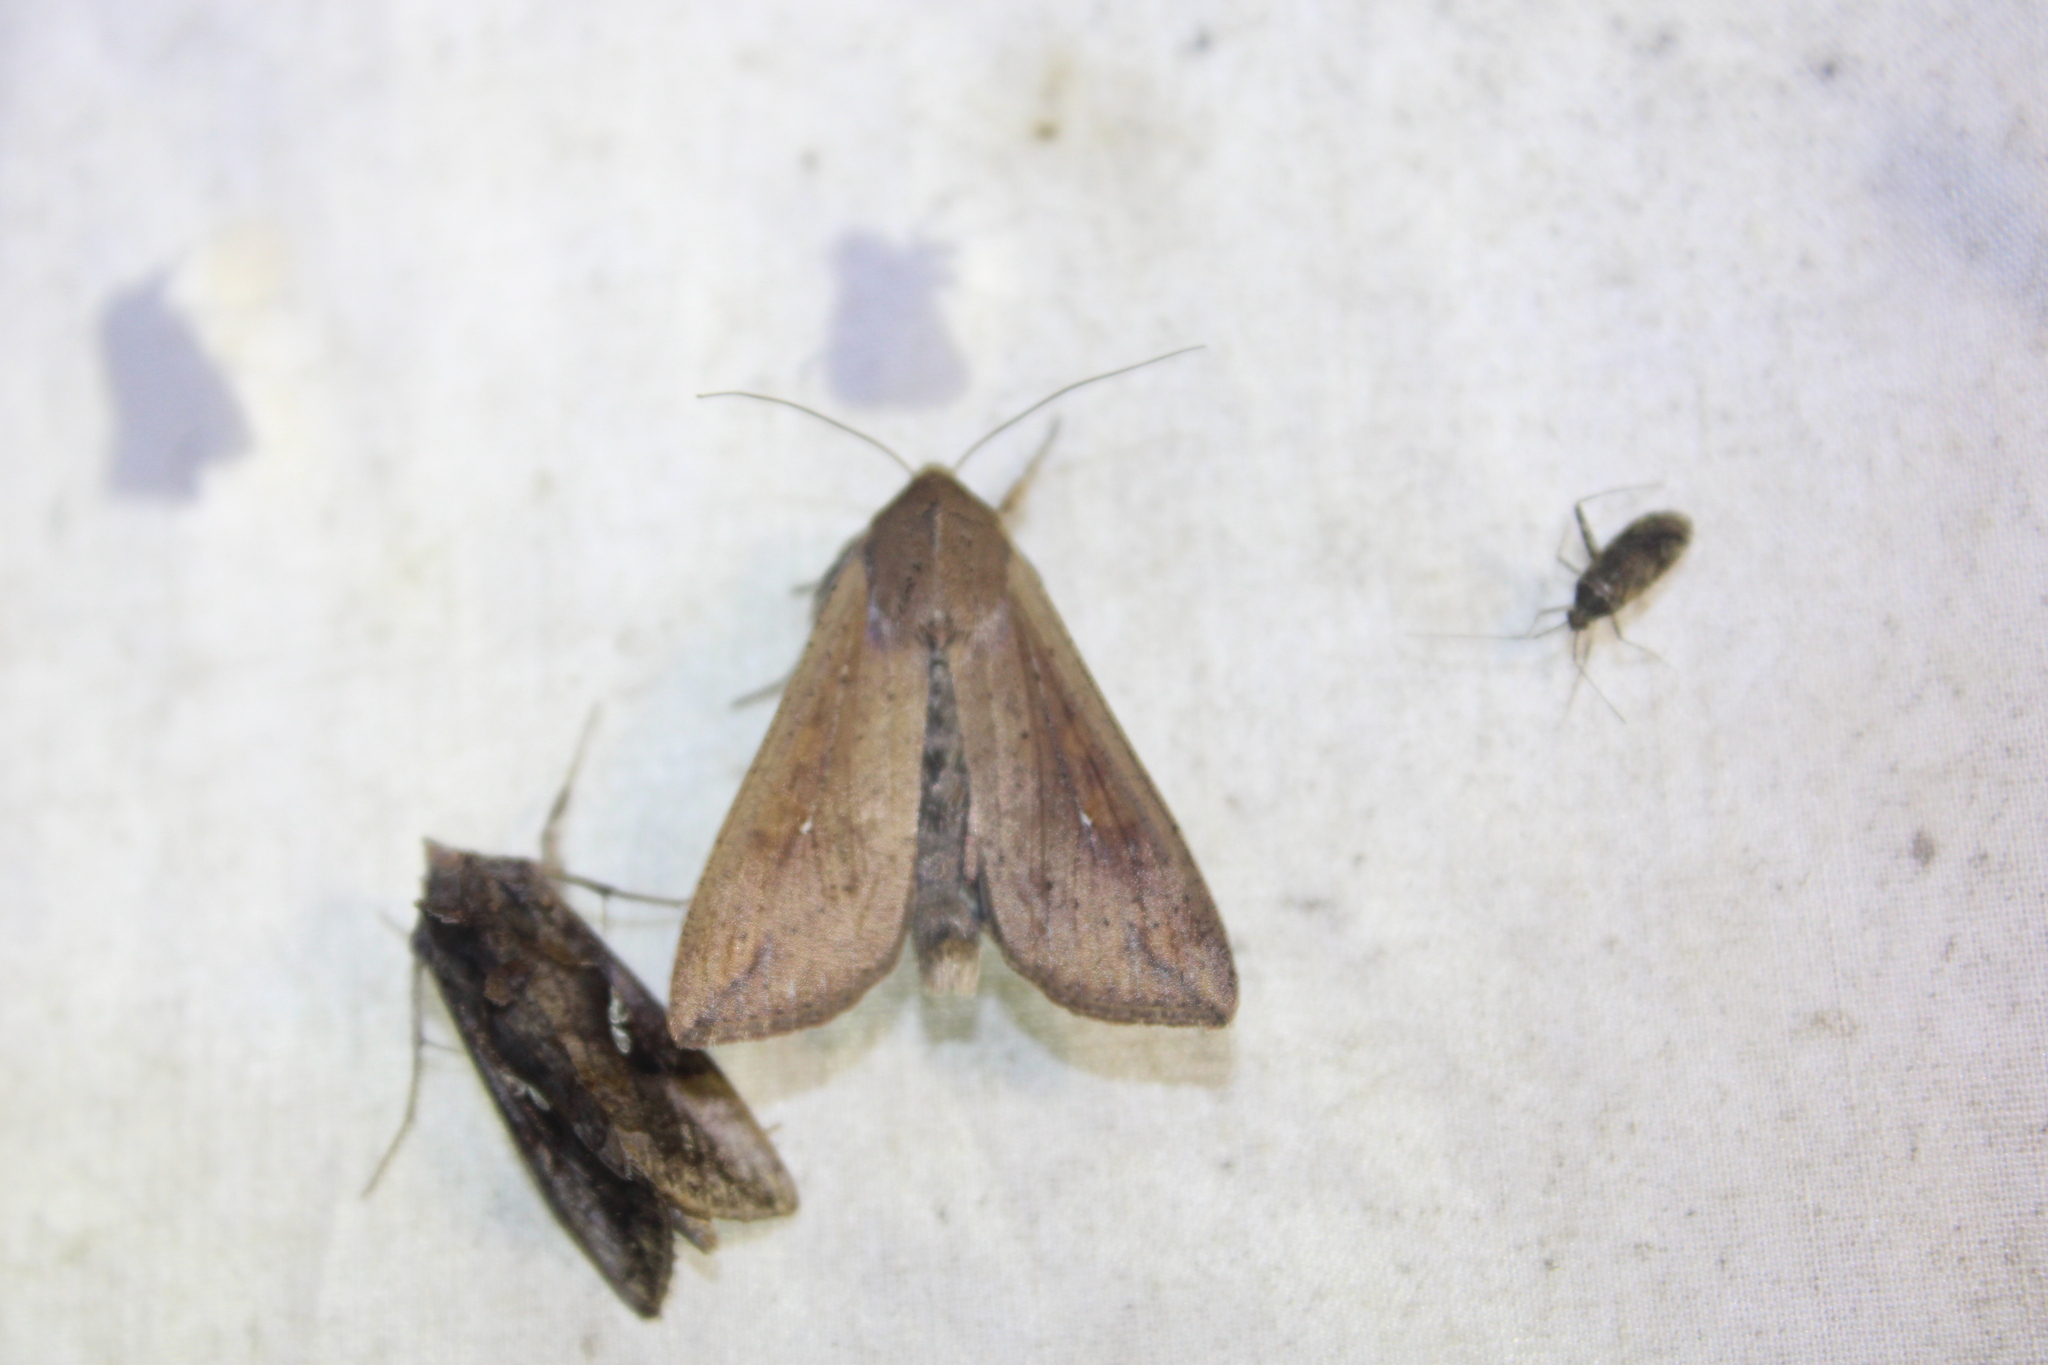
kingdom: Animalia
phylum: Arthropoda
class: Insecta
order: Lepidoptera
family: Noctuidae
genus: Mythimna
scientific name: Mythimna unipuncta
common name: White-speck
